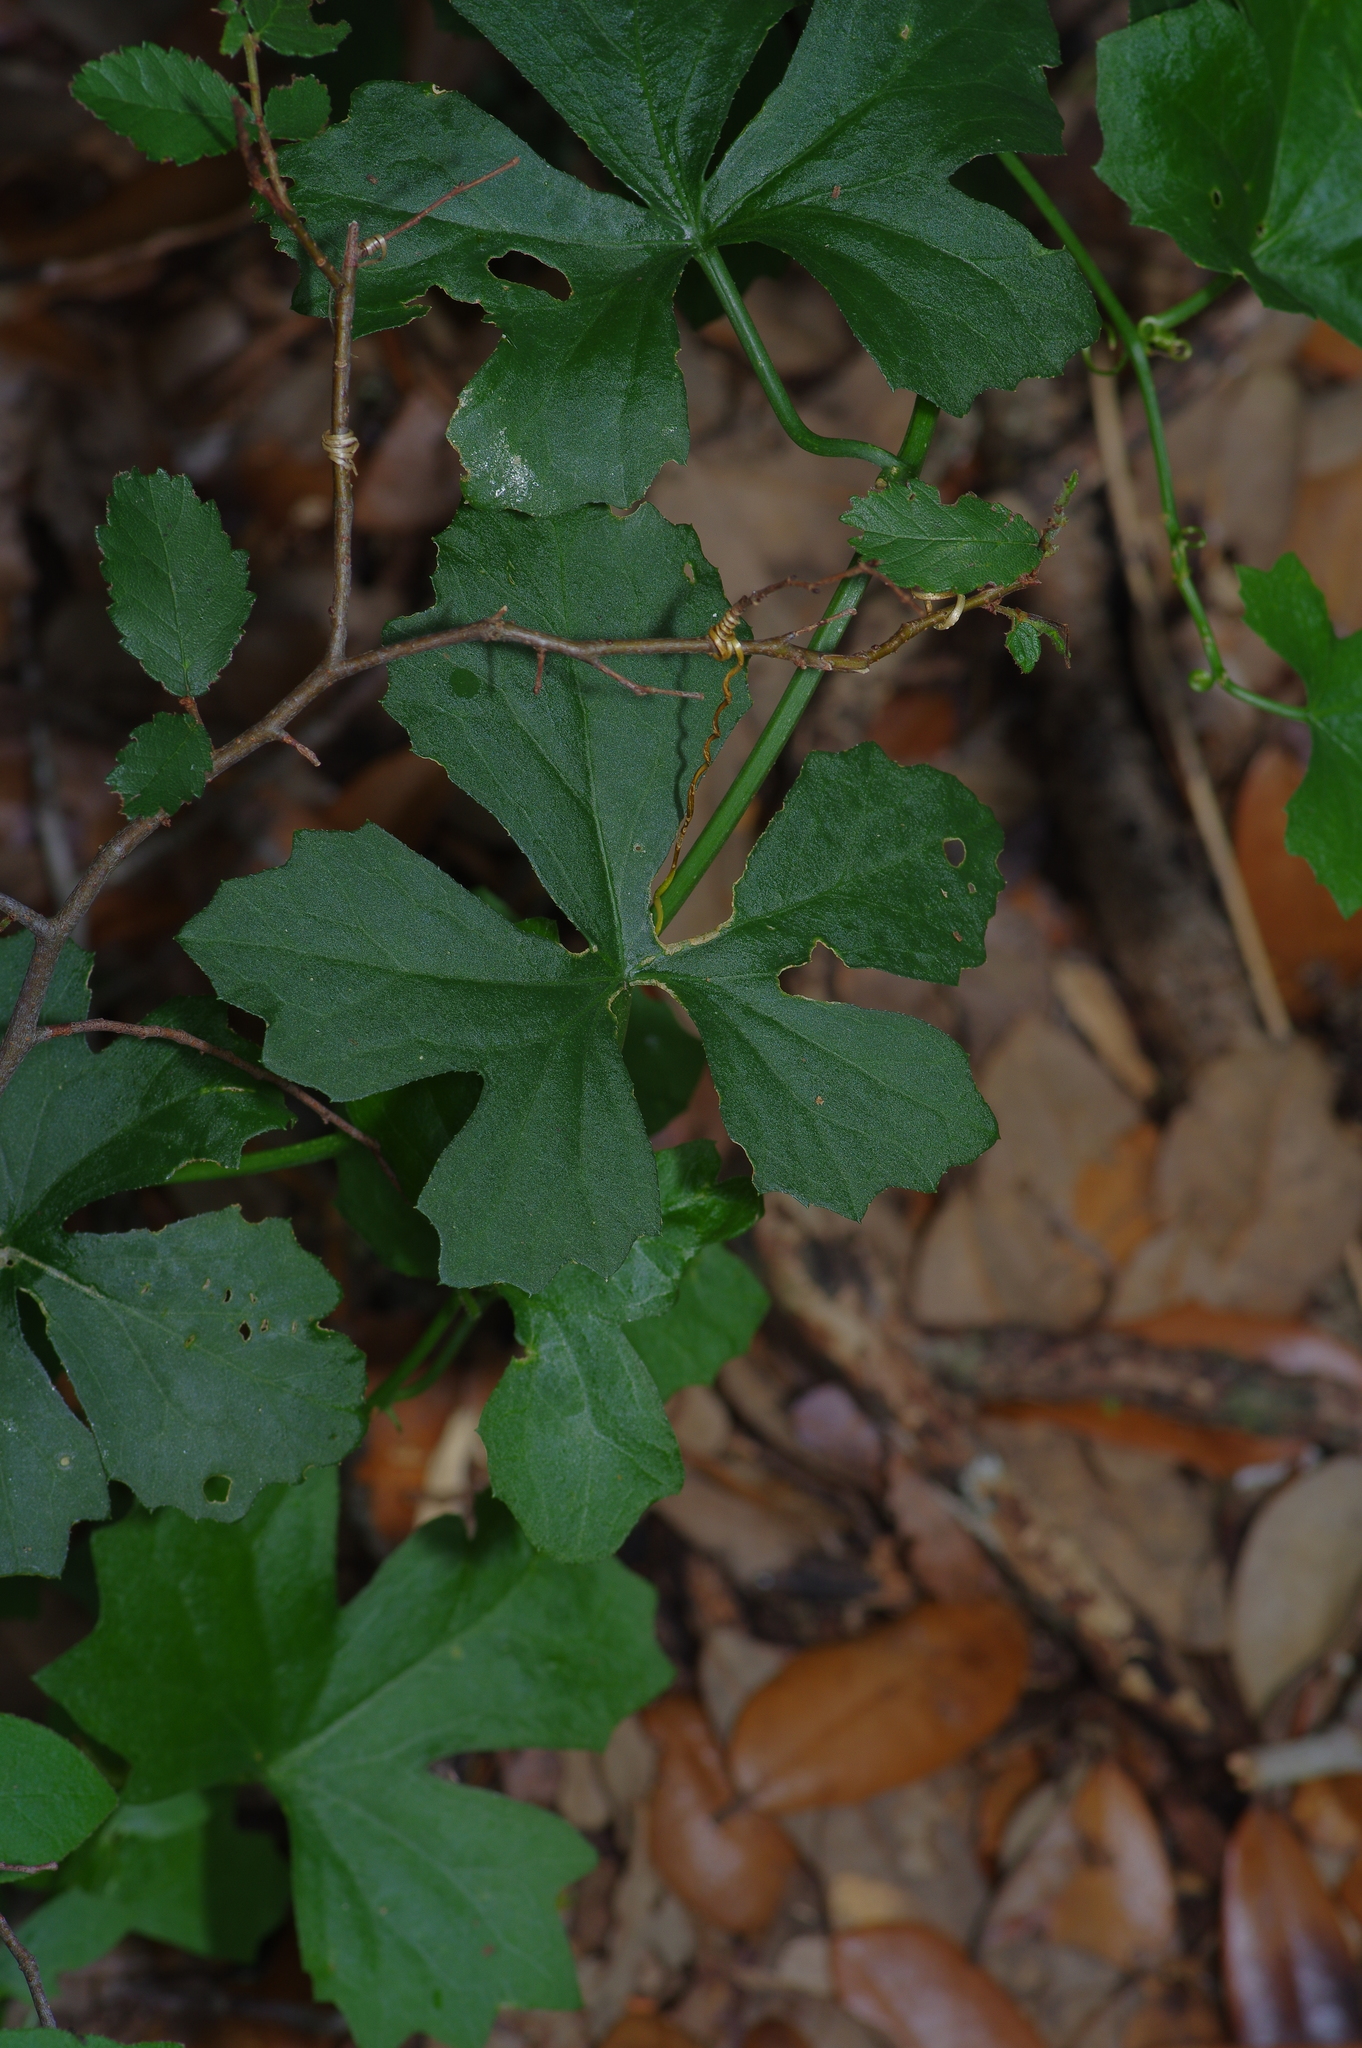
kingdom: Plantae
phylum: Tracheophyta
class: Magnoliopsida
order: Cucurbitales
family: Cucurbitaceae
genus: Ibervillea
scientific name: Ibervillea lindheimeri
